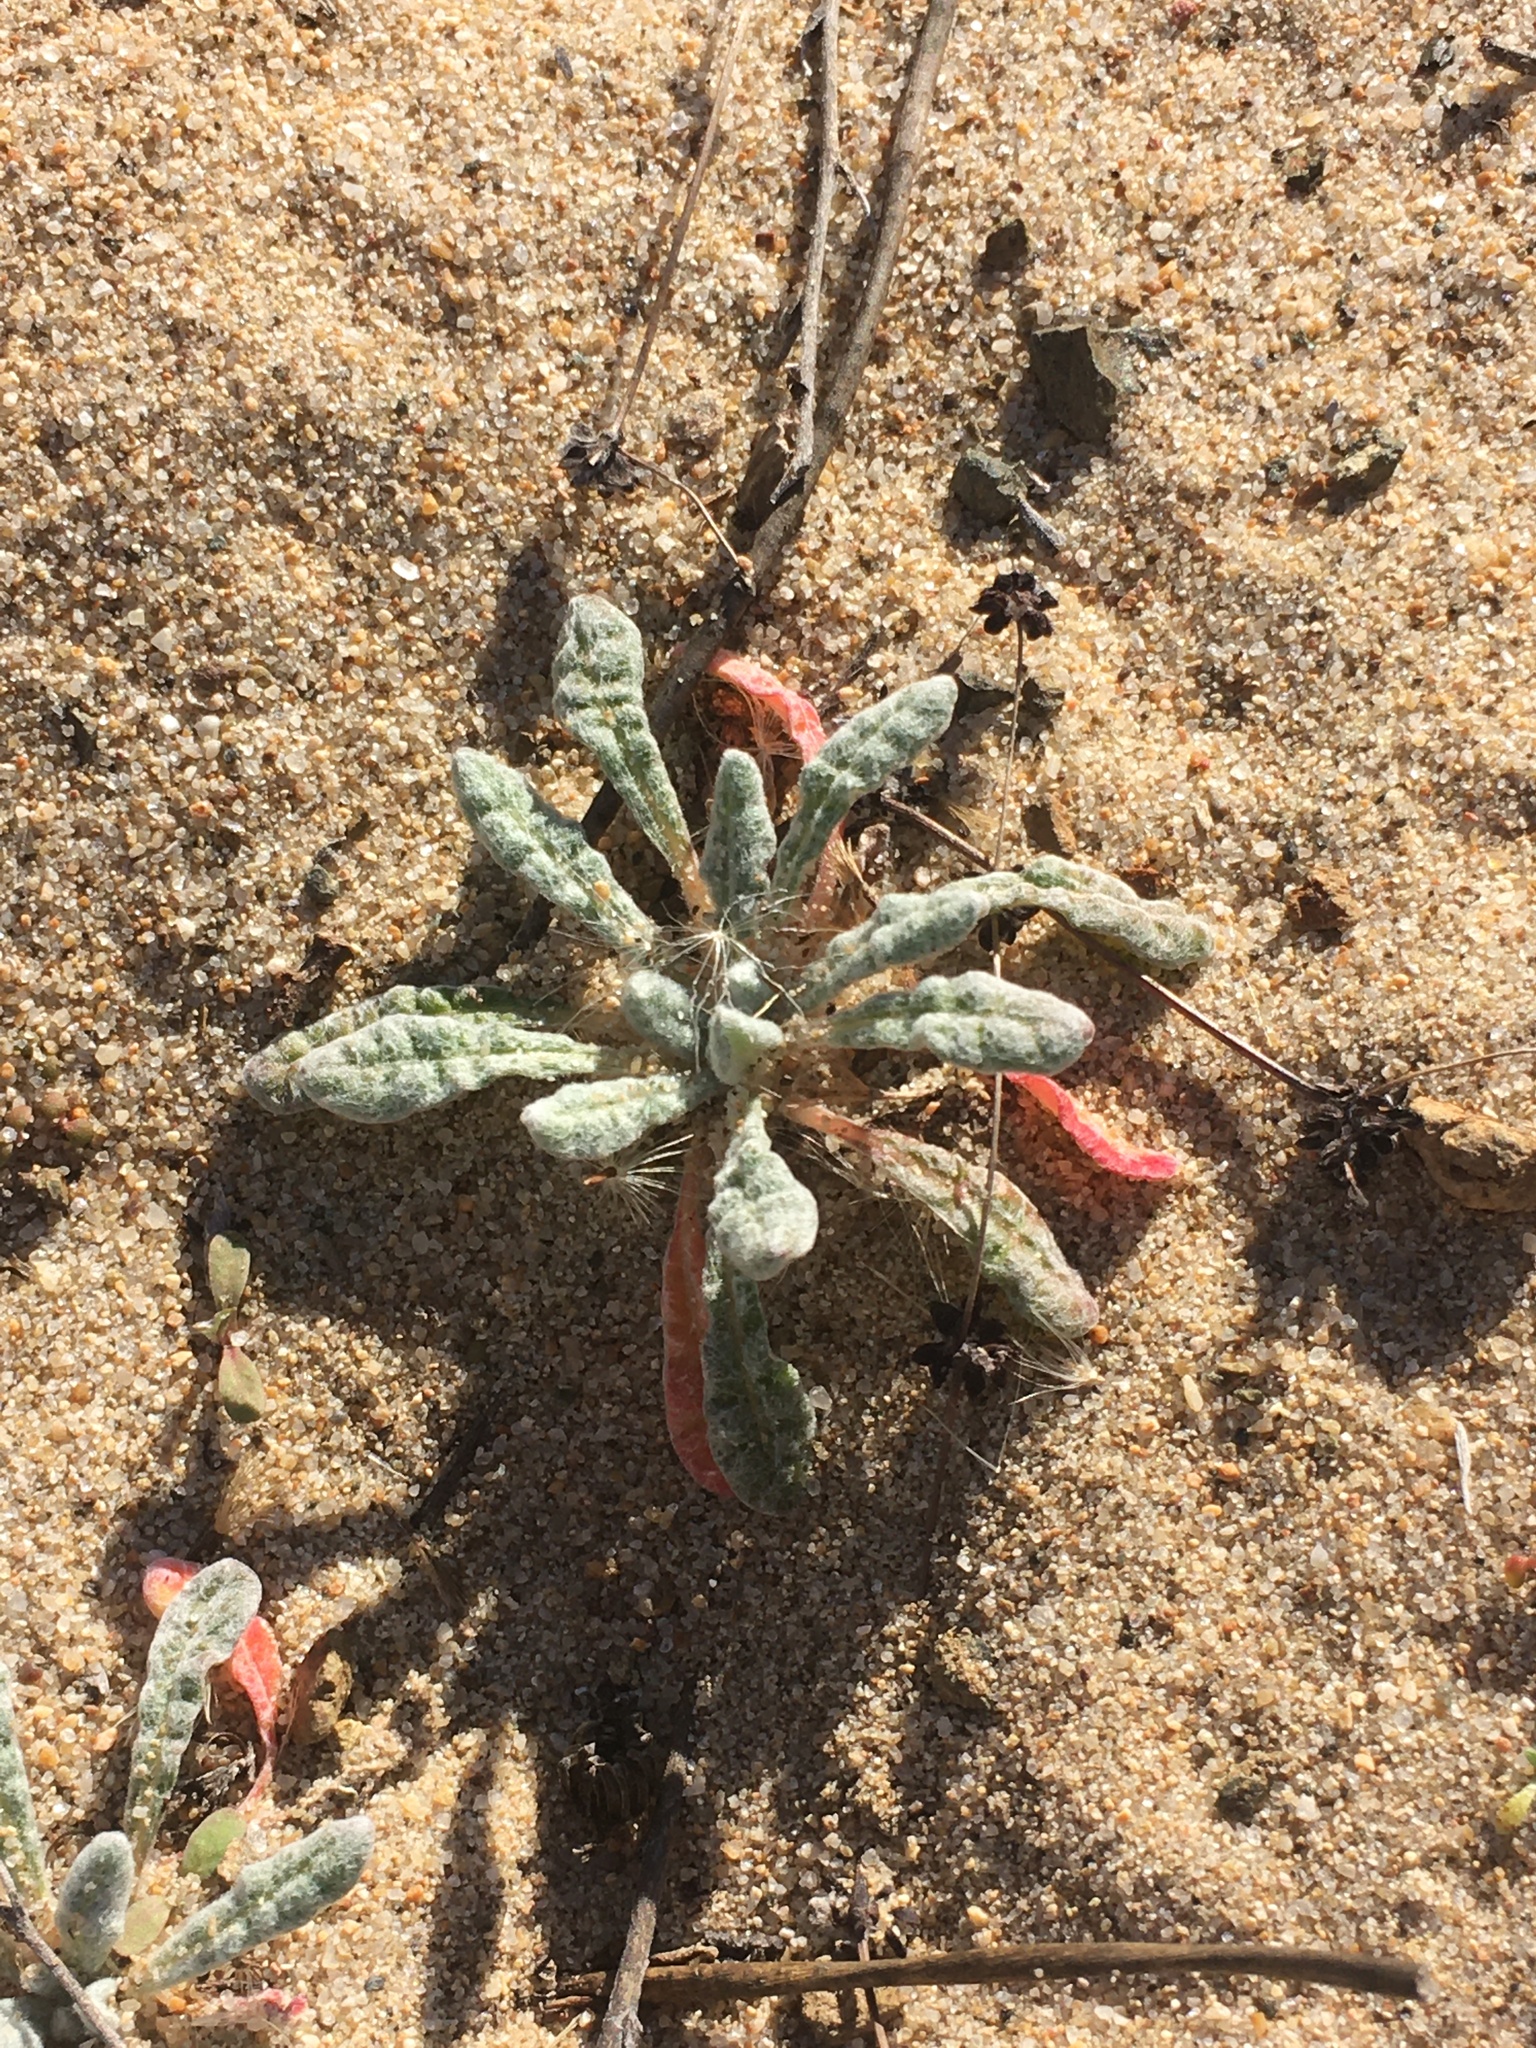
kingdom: Plantae
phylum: Tracheophyta
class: Magnoliopsida
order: Caryophyllales
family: Polygonaceae
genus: Nemacaulis
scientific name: Nemacaulis denudata
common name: Woolly-heads
